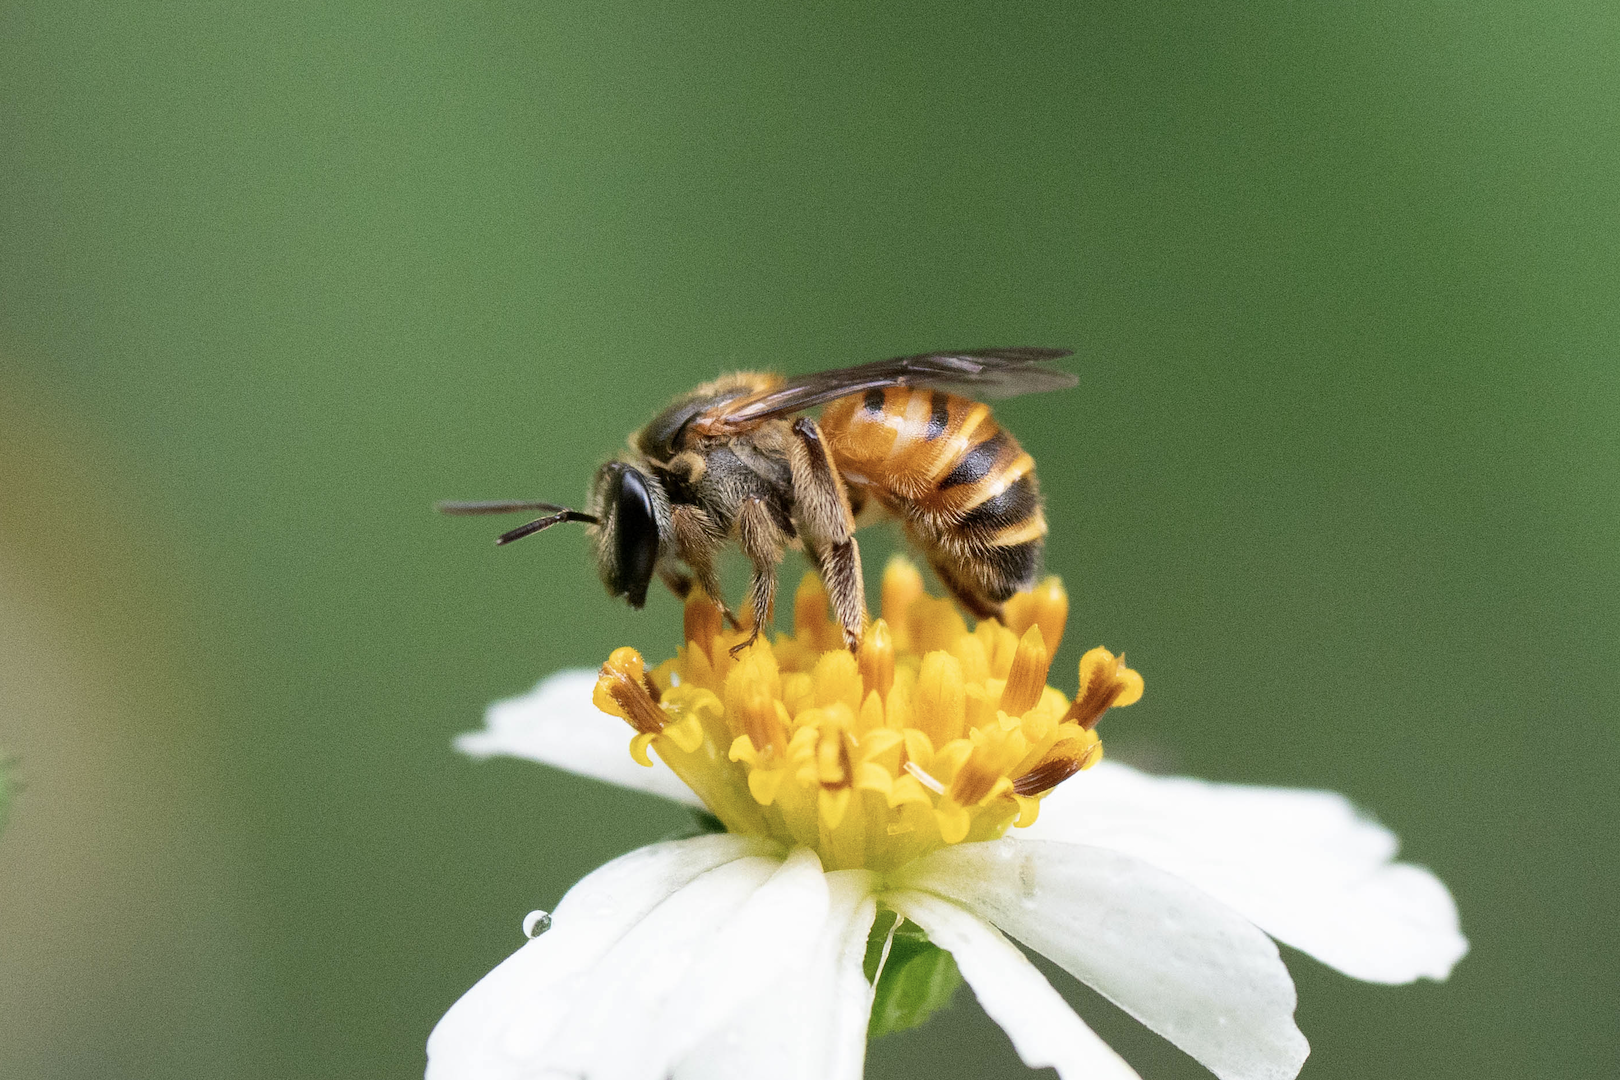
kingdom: Animalia
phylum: Arthropoda
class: Insecta
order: Hymenoptera
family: Halictidae
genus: Nomia
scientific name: Nomia penangensis
